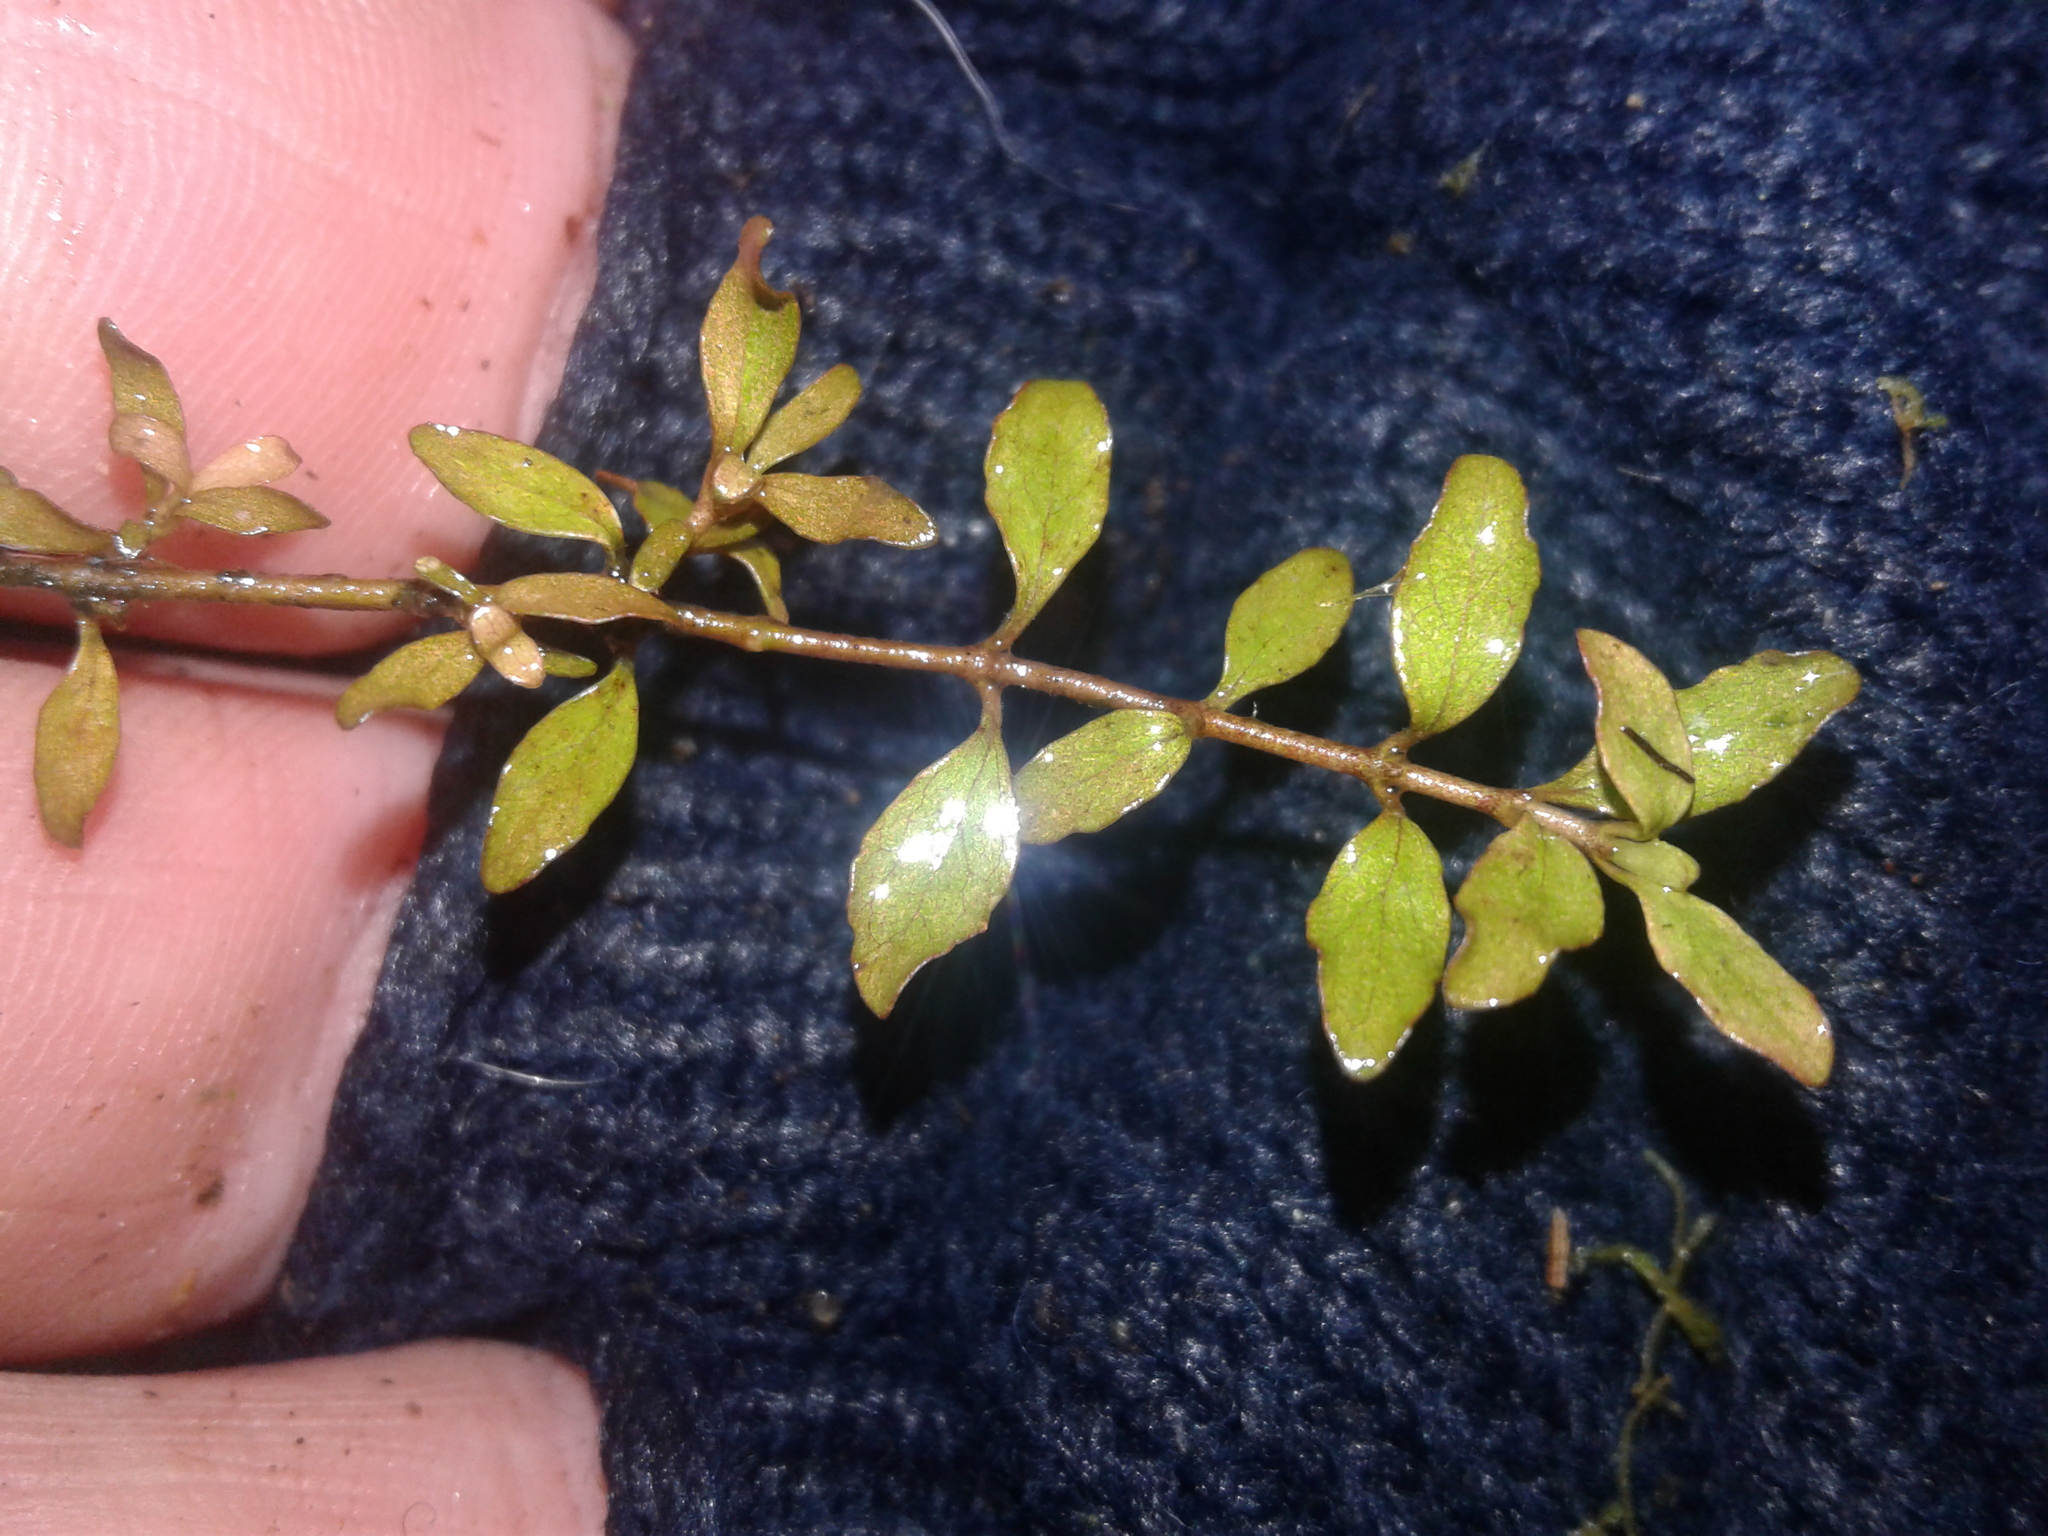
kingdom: Plantae
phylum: Tracheophyta
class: Magnoliopsida
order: Gentianales
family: Rubiaceae
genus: Coprosma
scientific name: Coprosma colensoi
